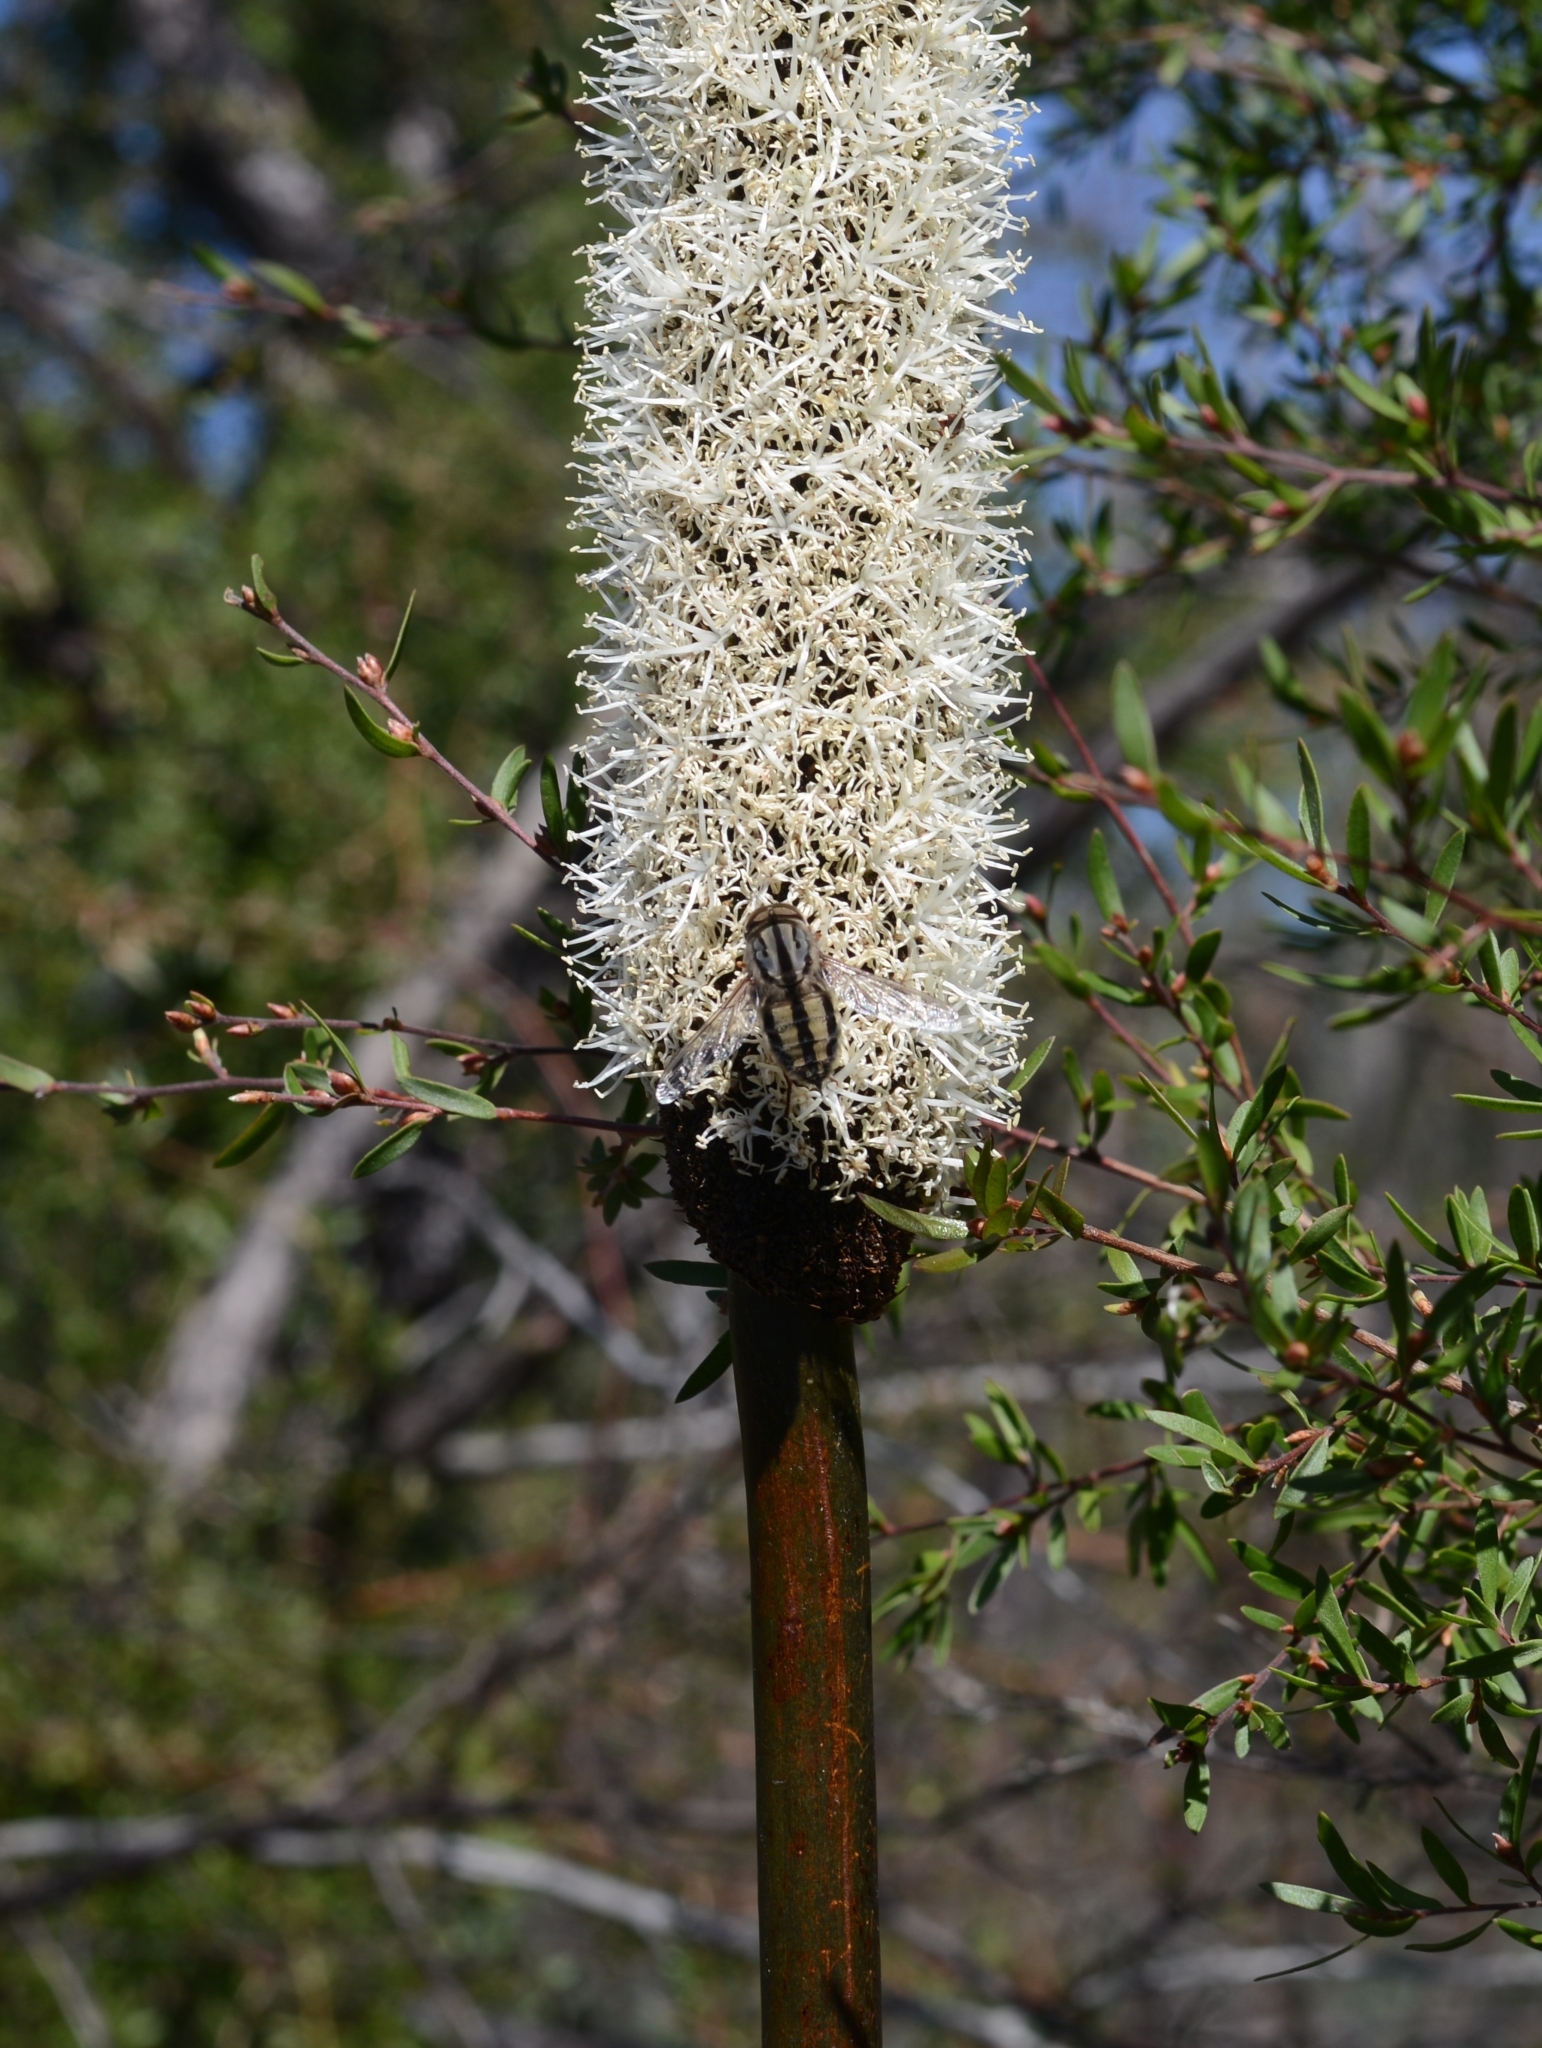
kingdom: Animalia
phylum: Arthropoda
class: Insecta
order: Diptera
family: Nemestrinidae
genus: Trichophthalma
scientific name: Trichophthalma bivittata
